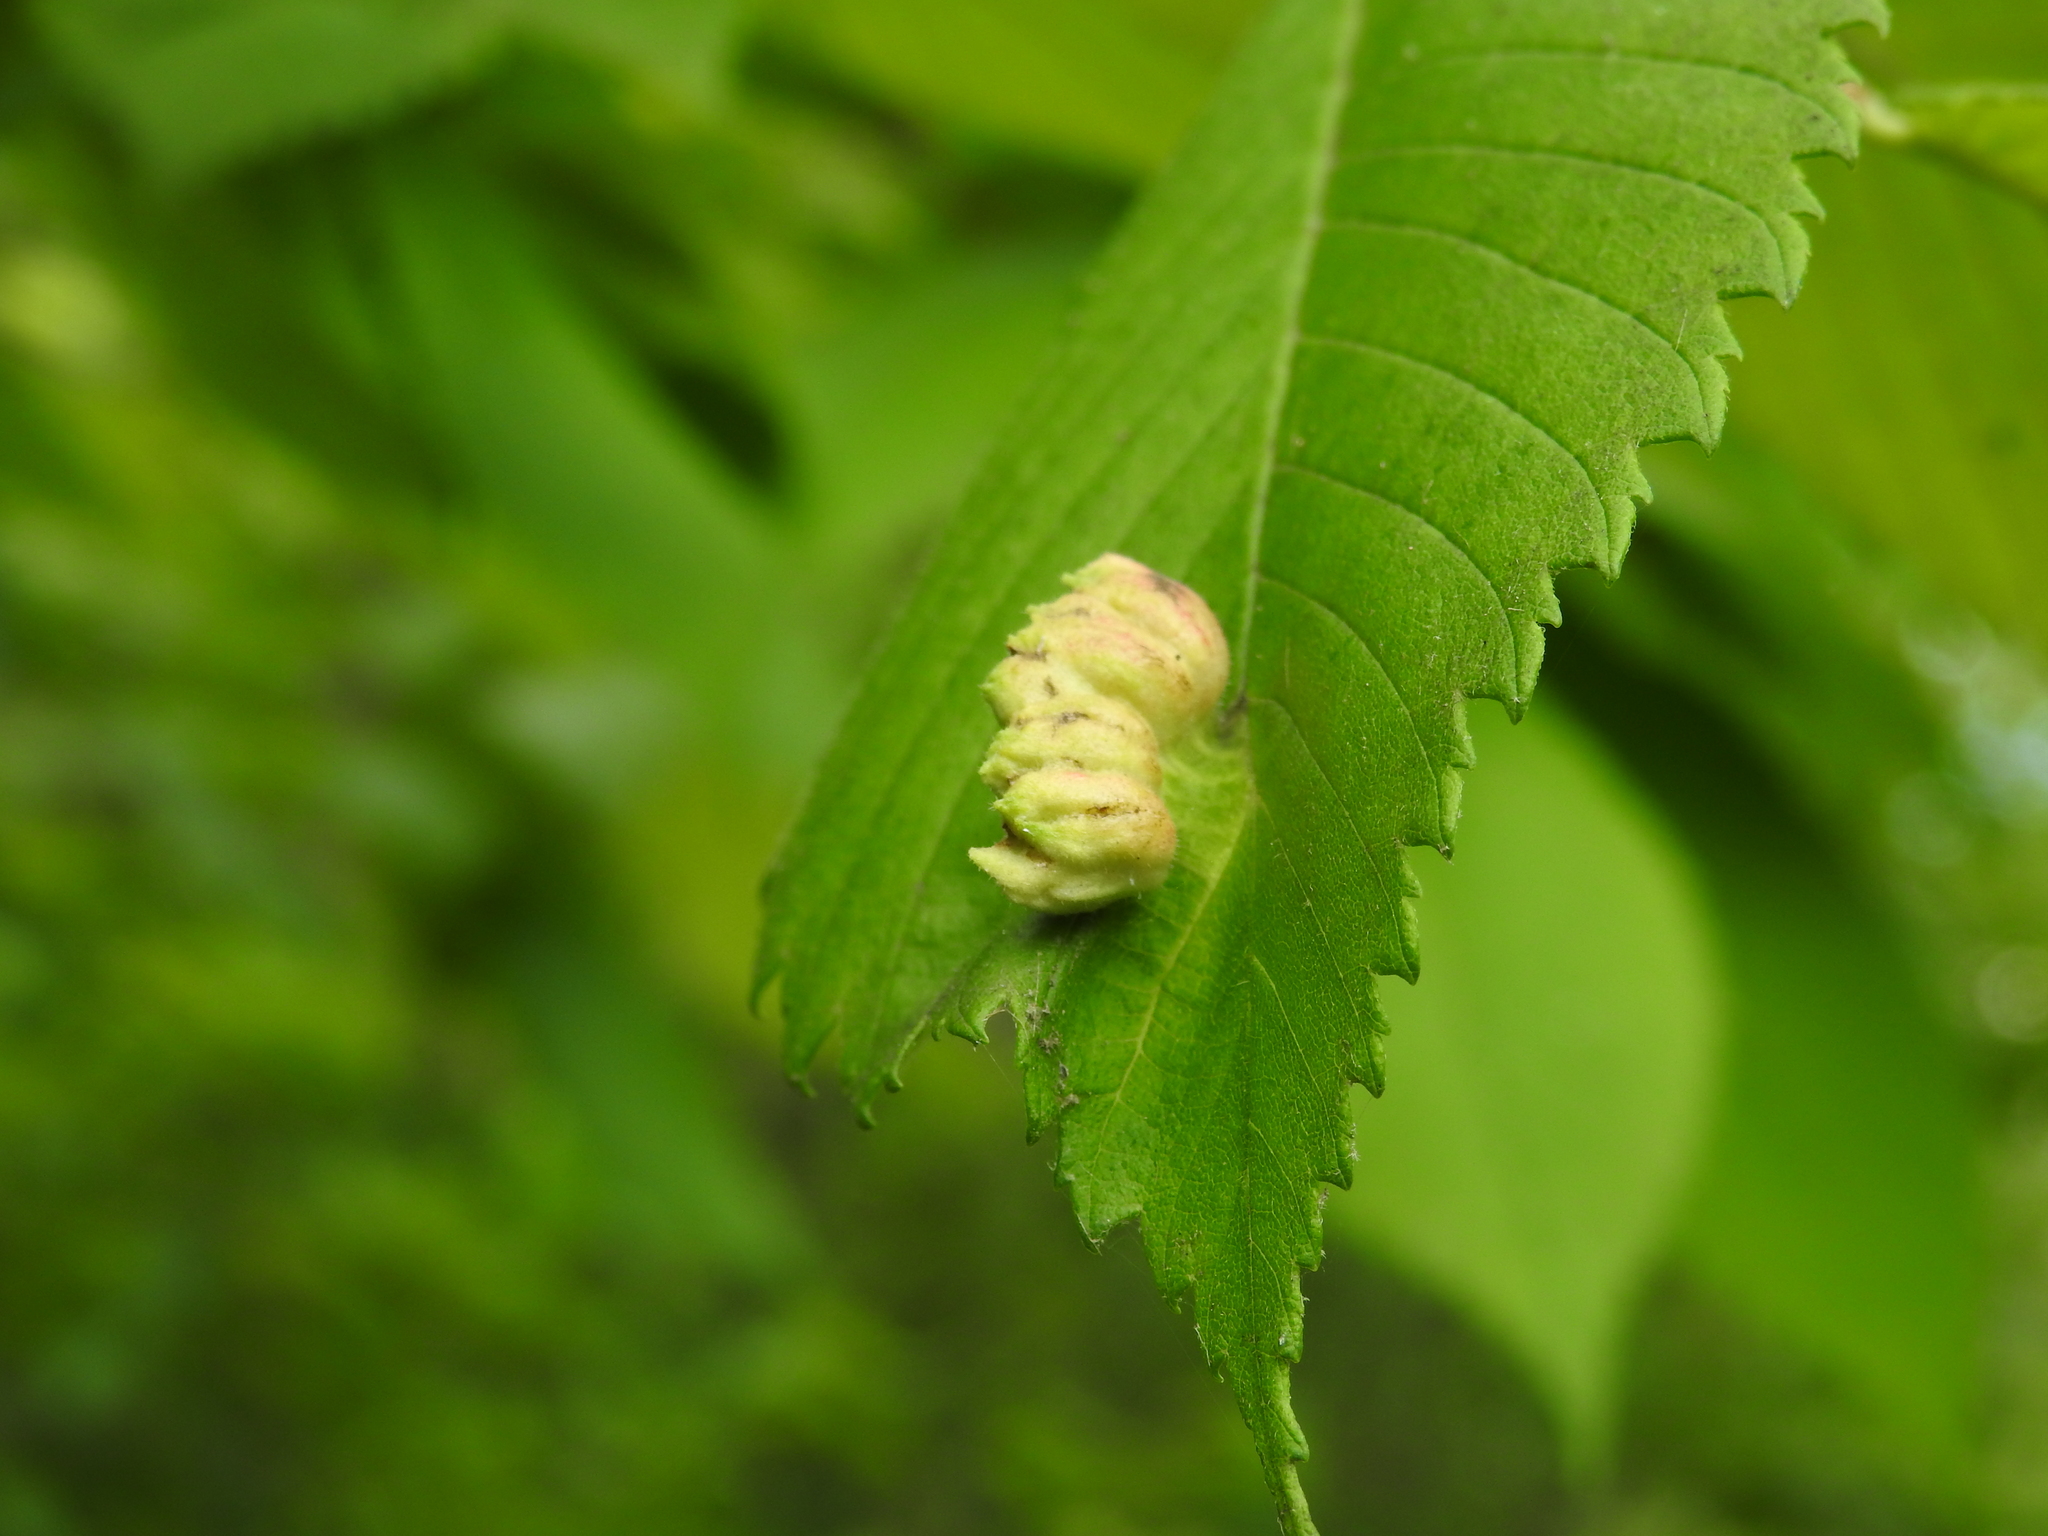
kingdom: Animalia
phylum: Arthropoda
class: Insecta
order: Hemiptera
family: Aphididae
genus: Colopha
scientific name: Colopha ulmicola
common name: Elm cockscombgall aphid
